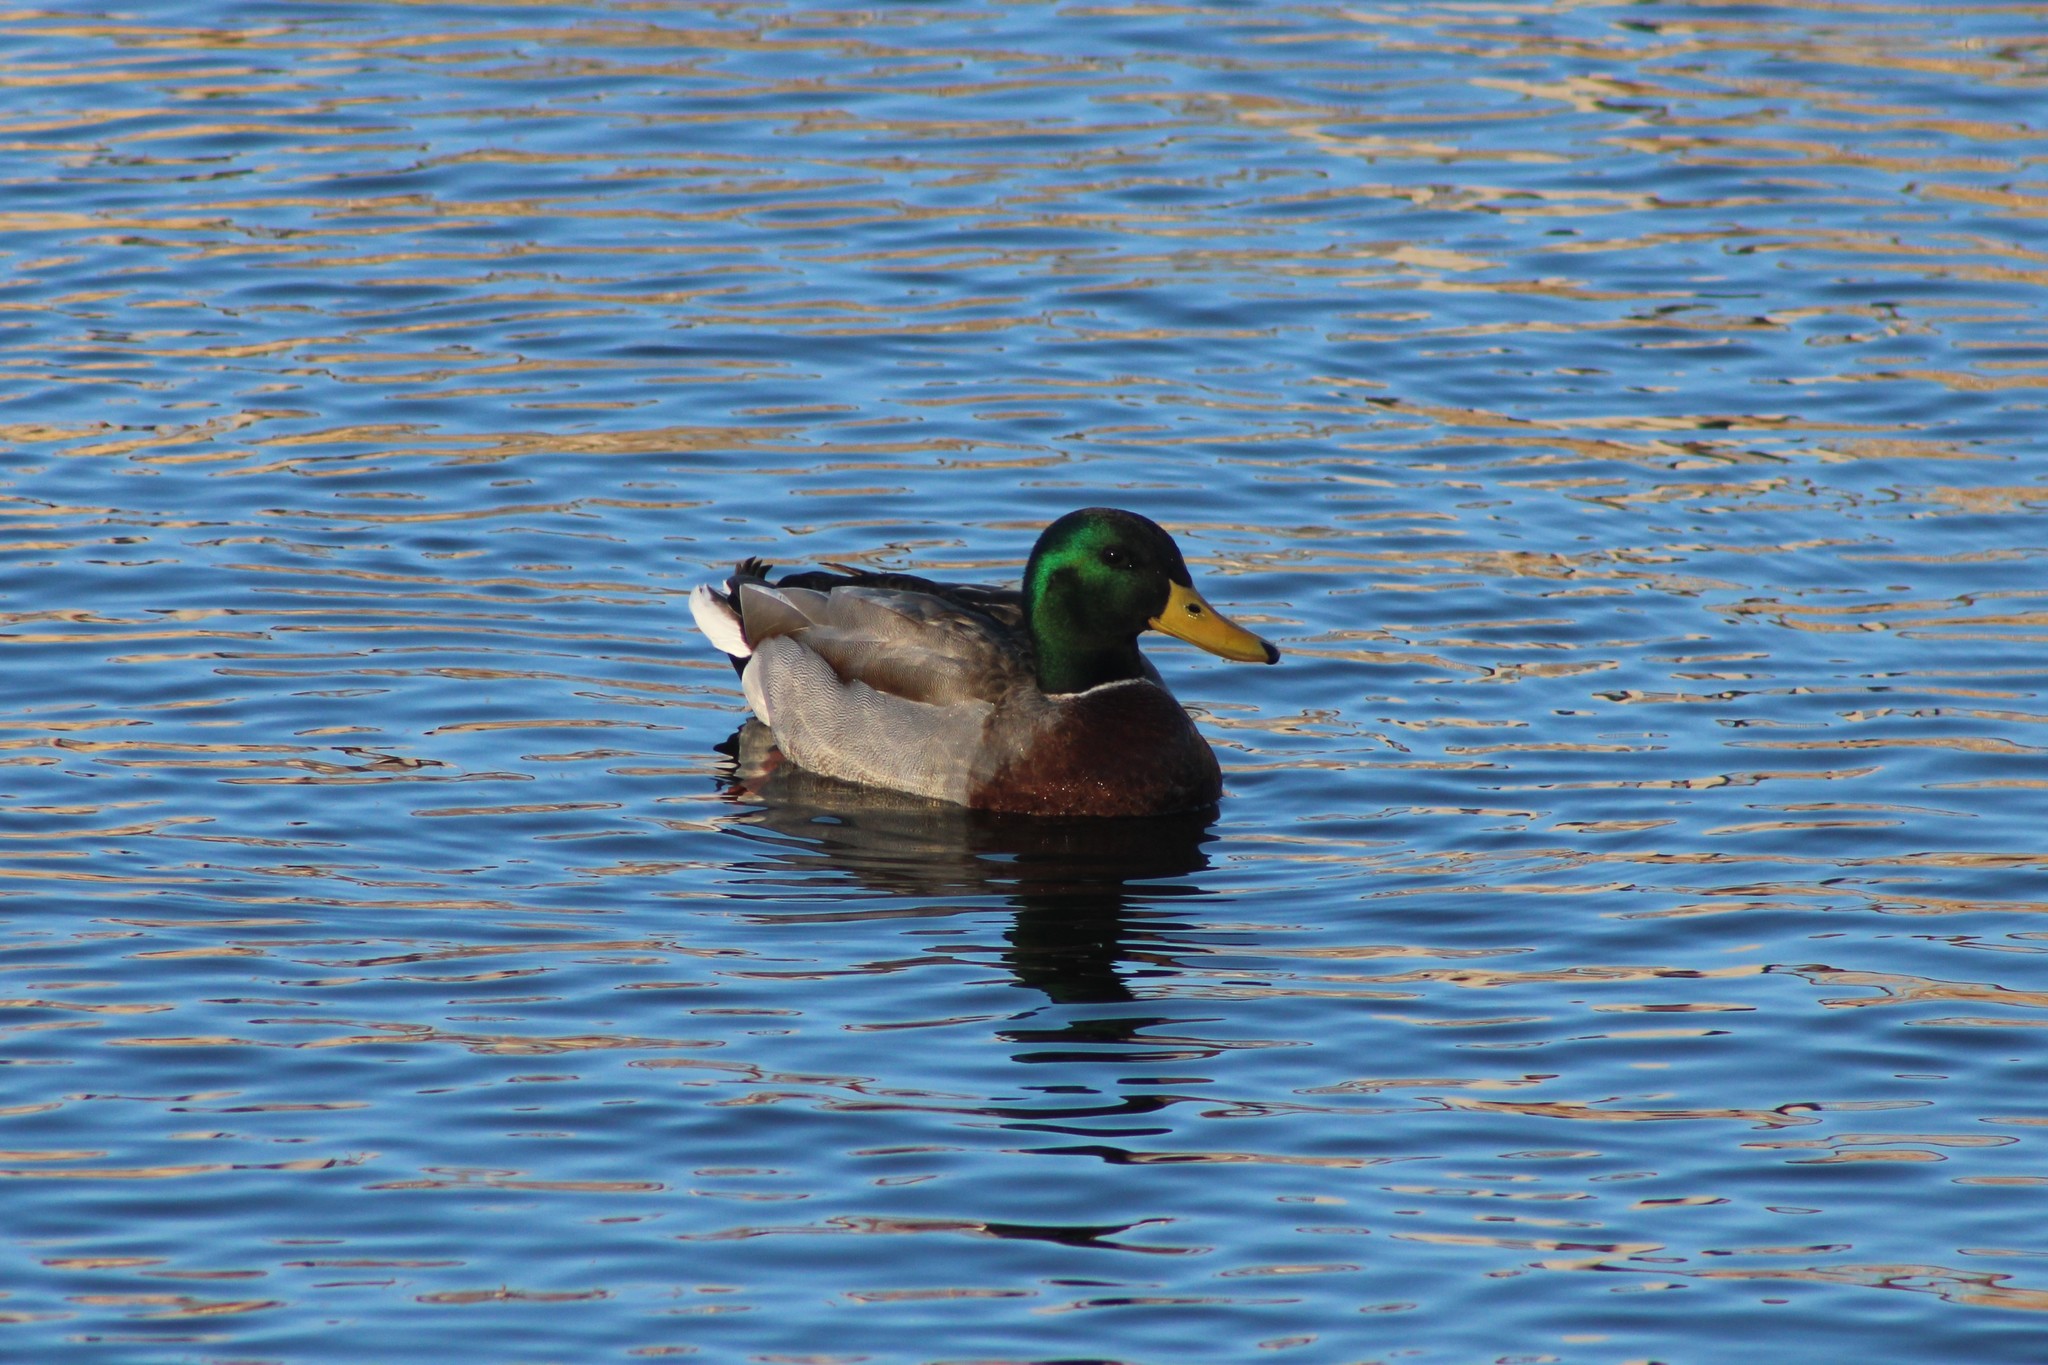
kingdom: Animalia
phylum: Chordata
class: Aves
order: Anseriformes
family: Anatidae
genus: Anas
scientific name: Anas platyrhynchos
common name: Mallard
